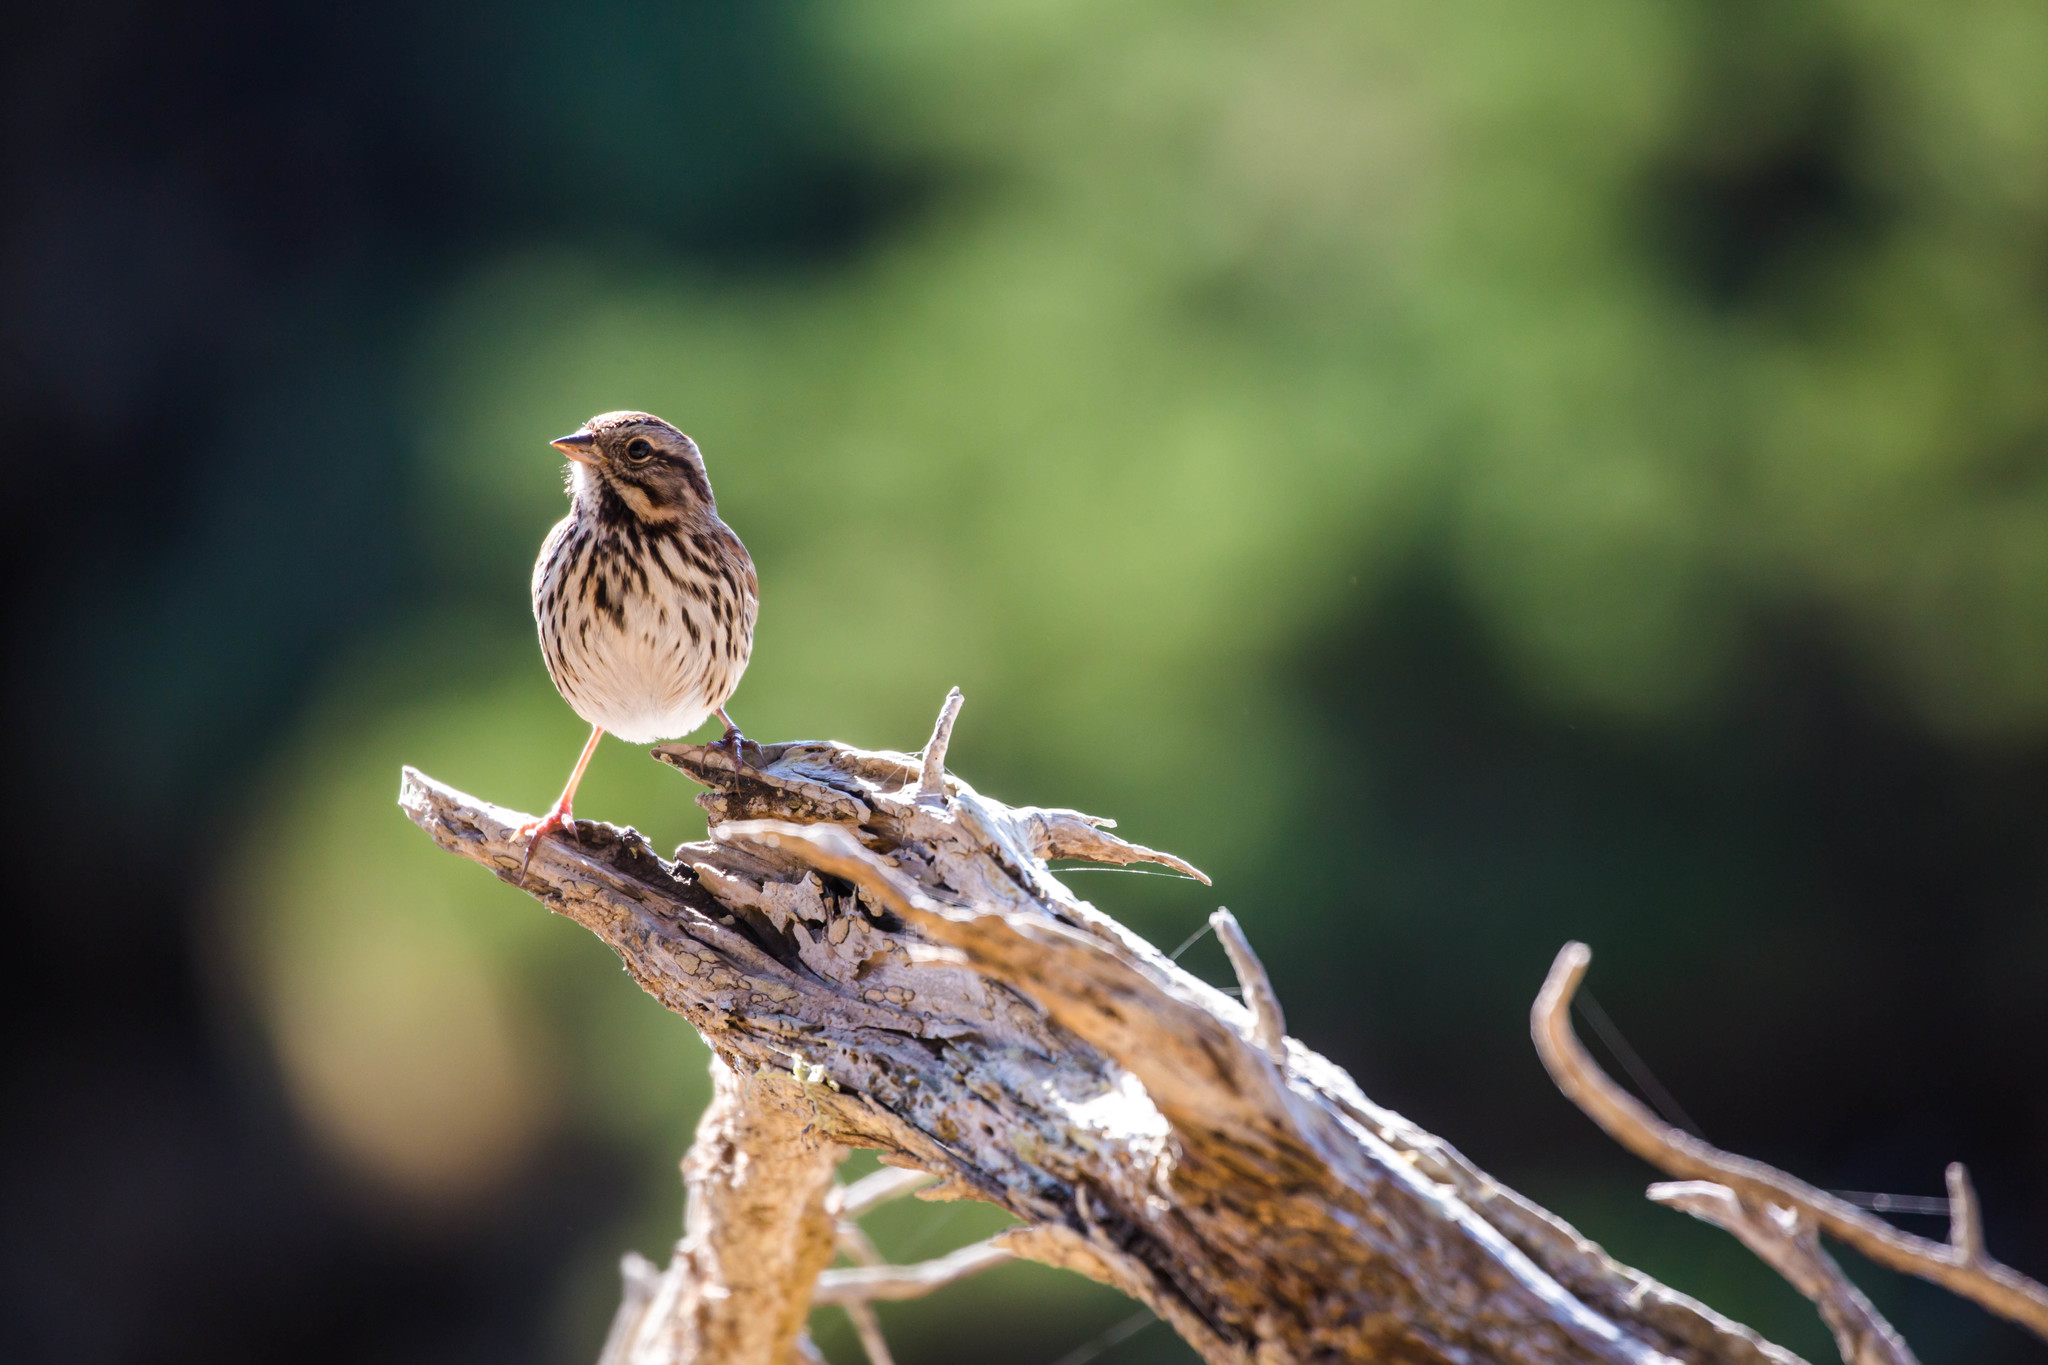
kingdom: Animalia
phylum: Chordata
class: Aves
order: Passeriformes
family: Passerellidae
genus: Melospiza
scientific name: Melospiza melodia
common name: Song sparrow
